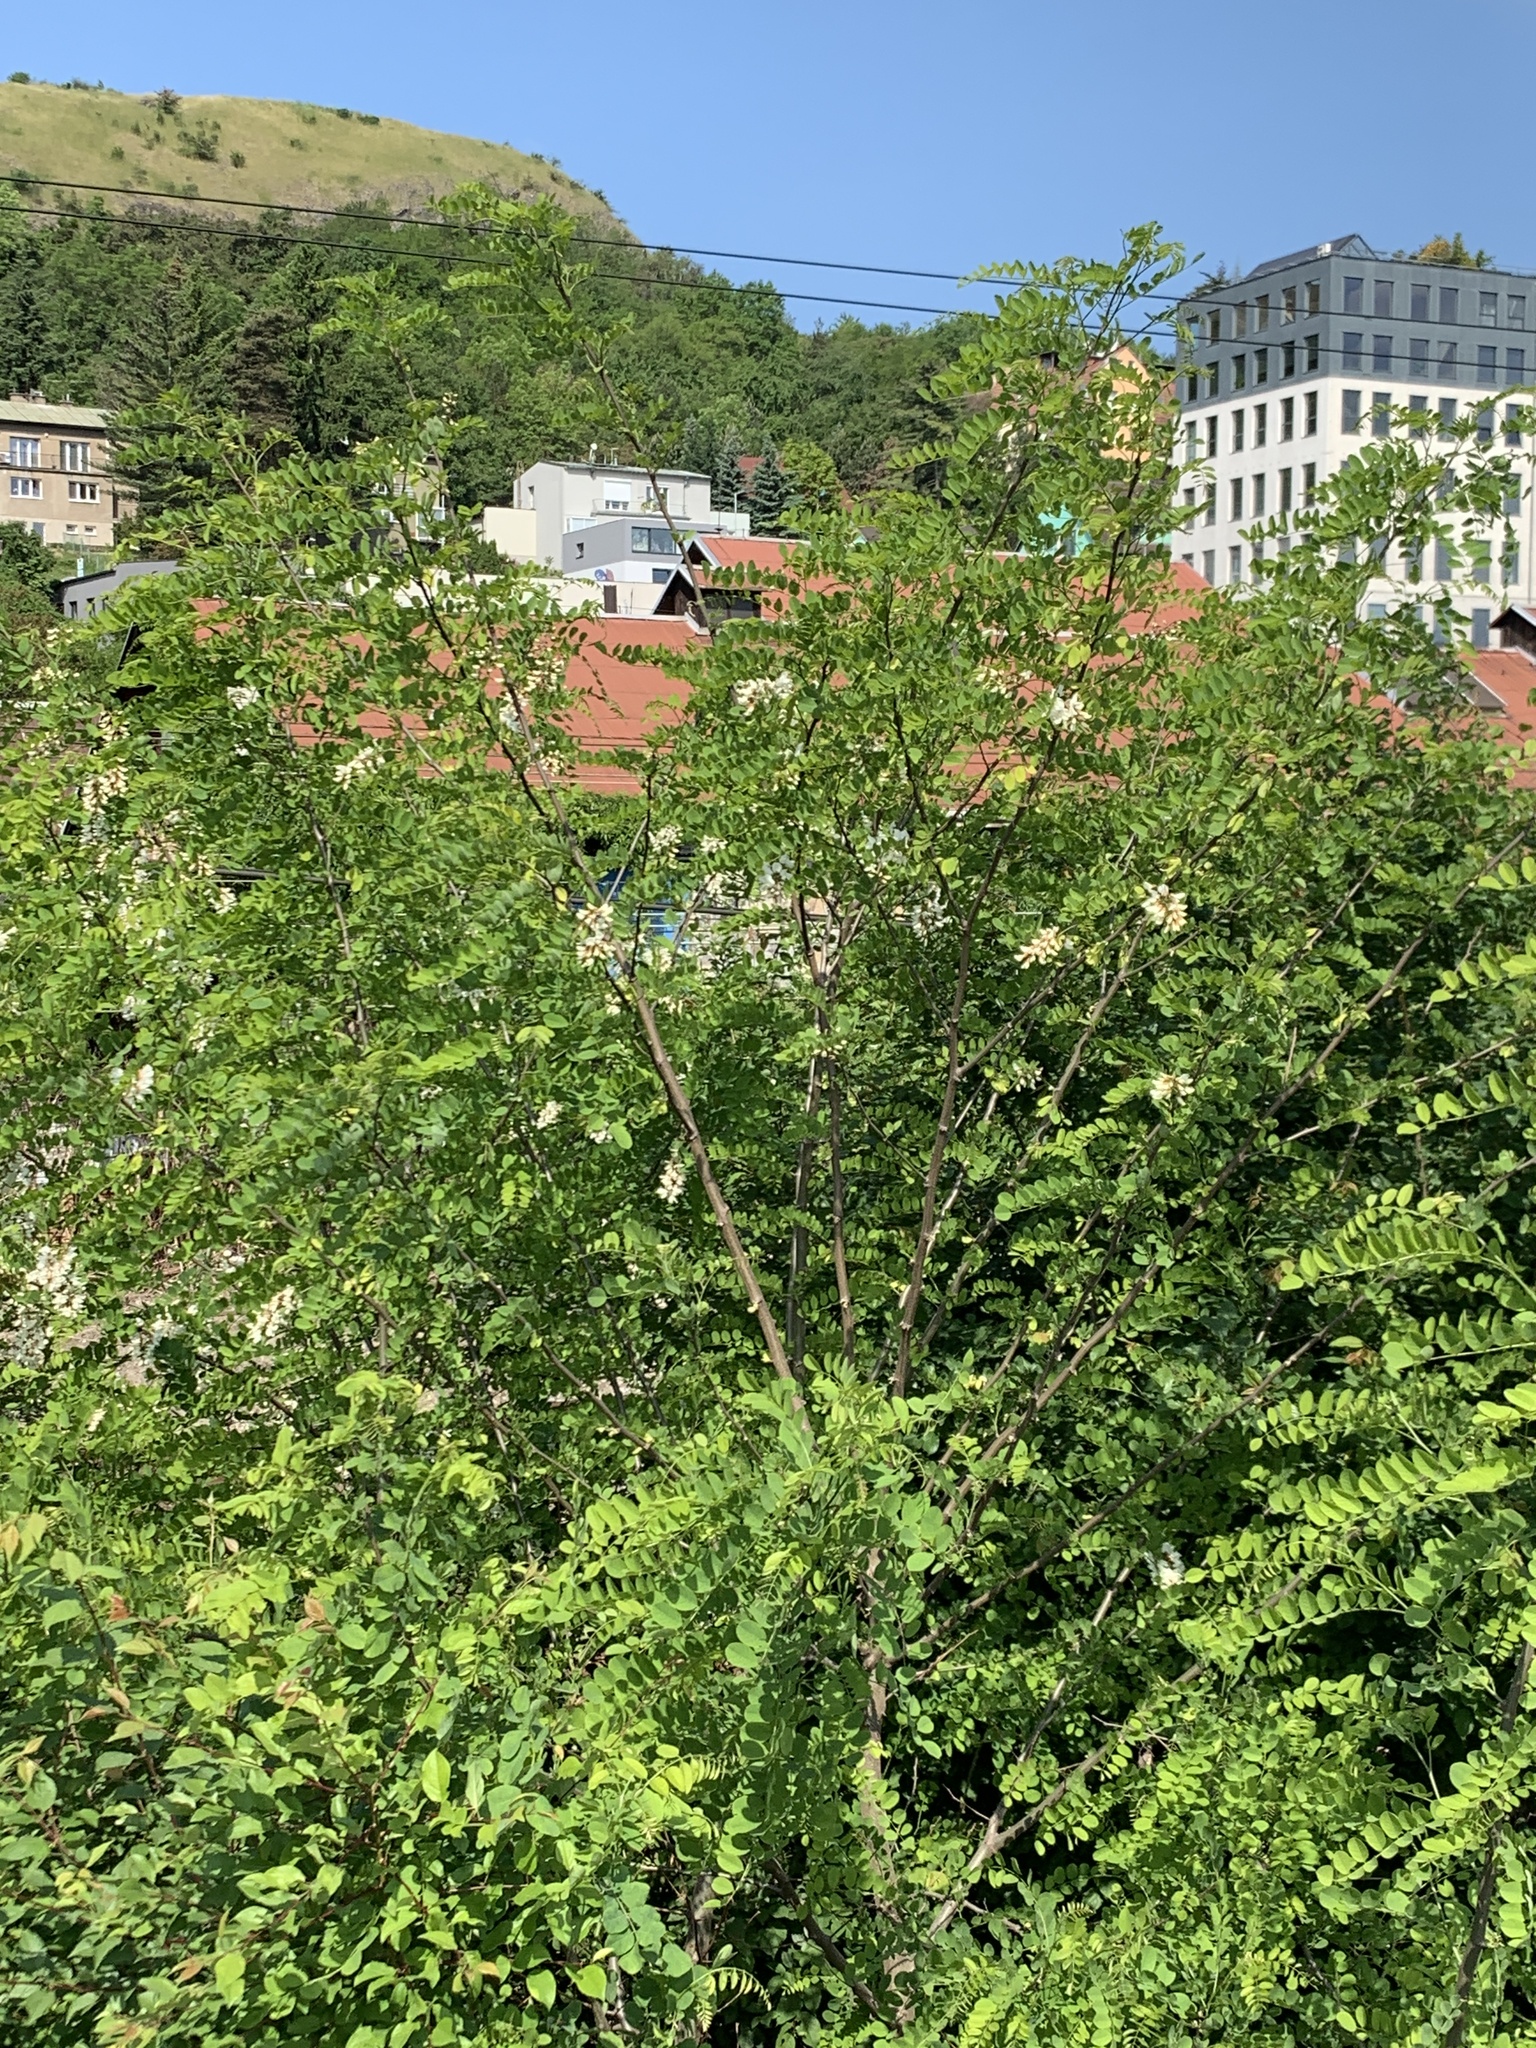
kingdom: Plantae
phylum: Tracheophyta
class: Magnoliopsida
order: Fabales
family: Fabaceae
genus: Robinia
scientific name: Robinia pseudoacacia
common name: Black locust
